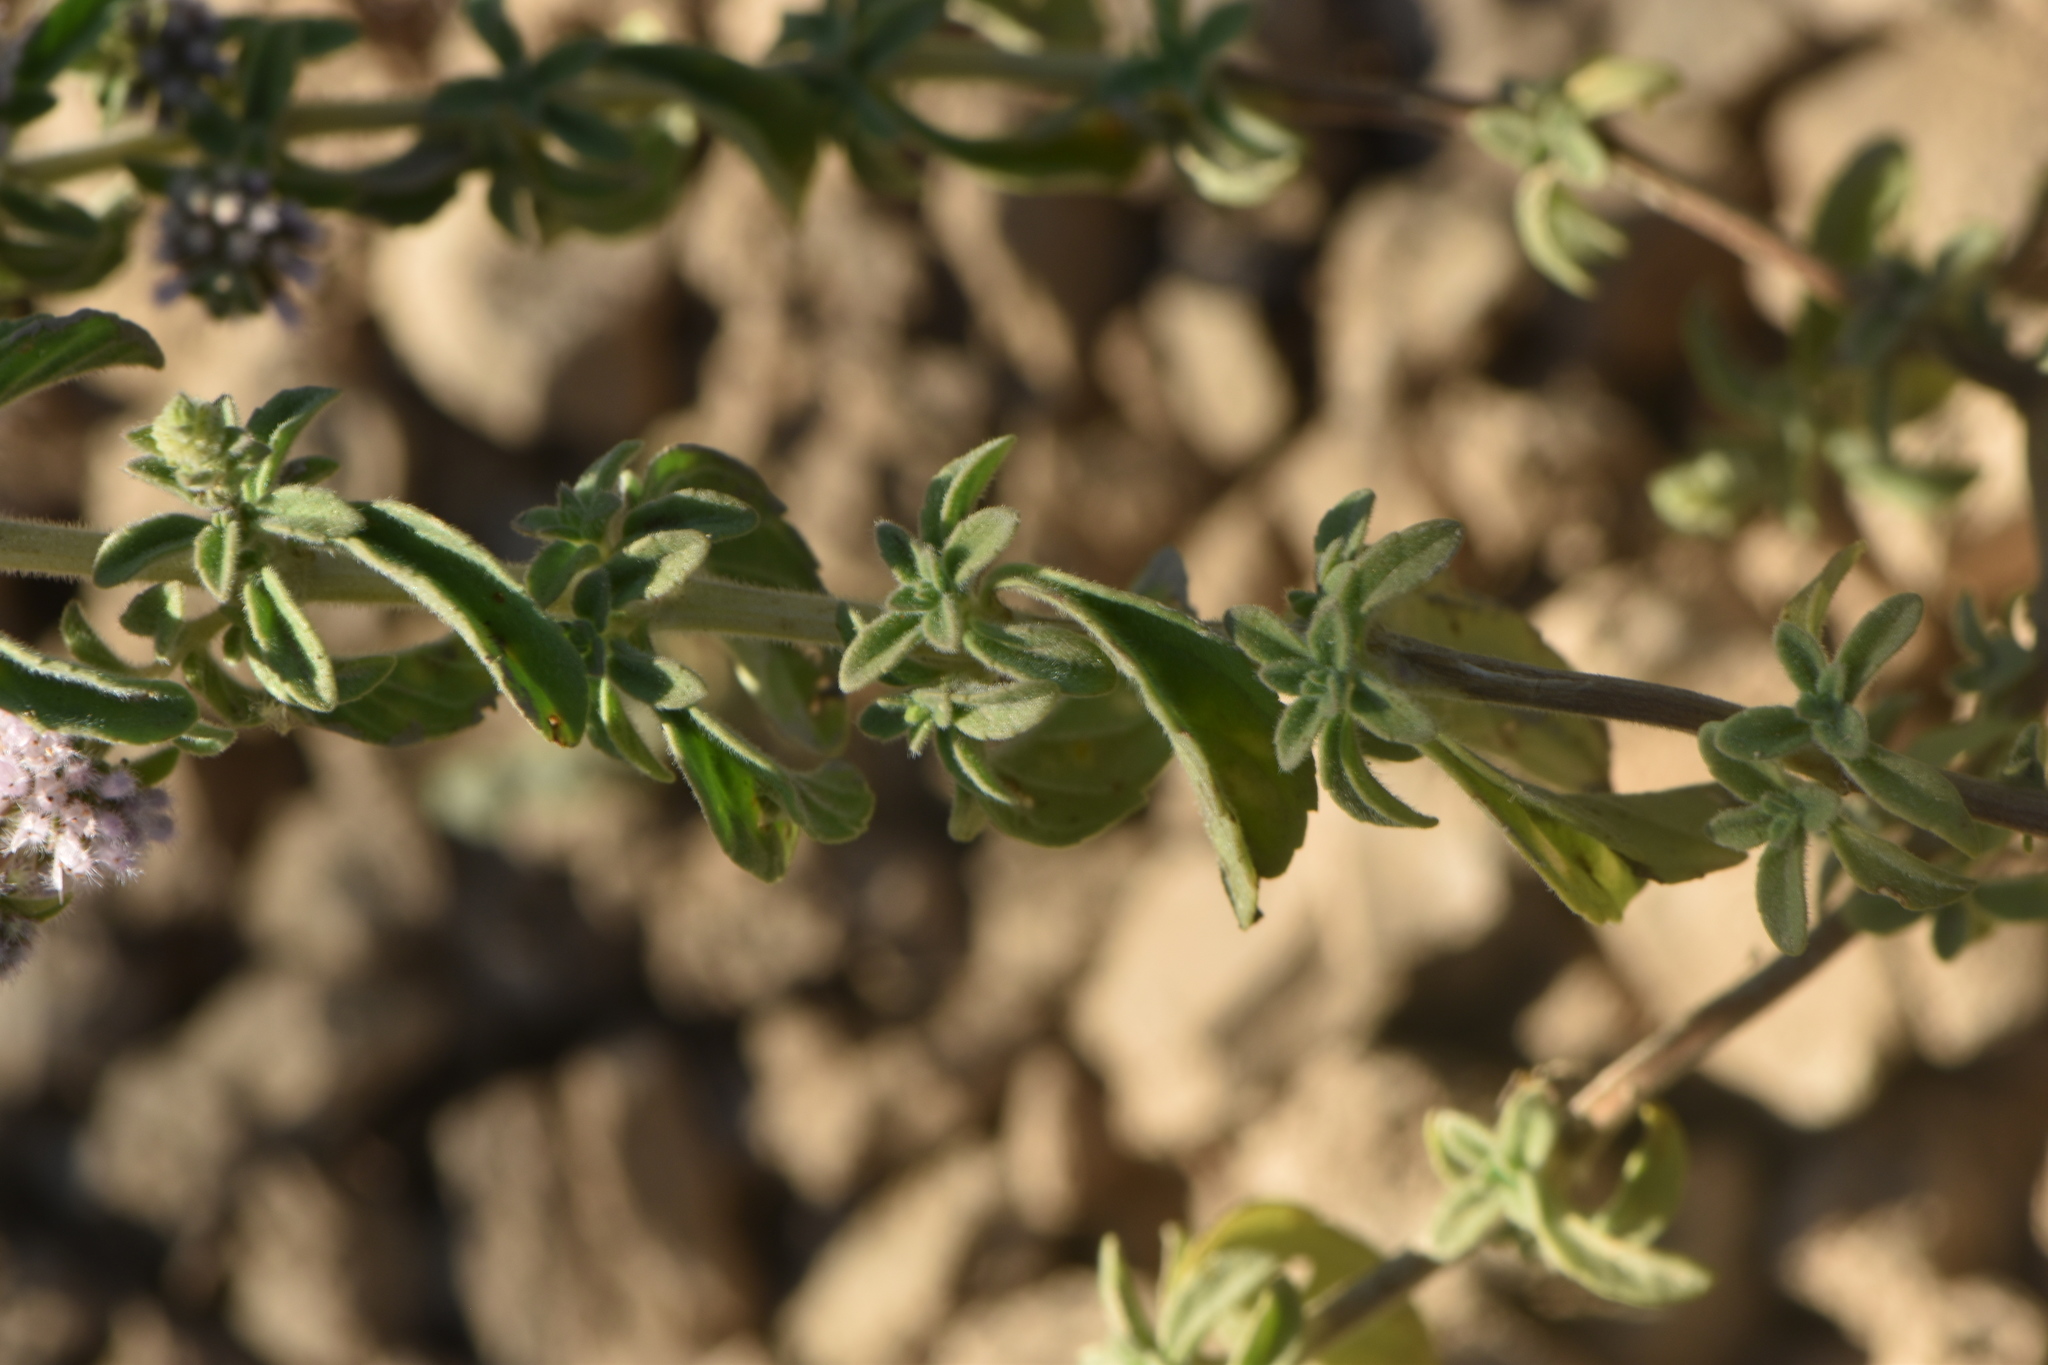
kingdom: Plantae
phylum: Tracheophyta
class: Magnoliopsida
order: Lamiales
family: Lamiaceae
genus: Mentha
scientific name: Mentha pulegium
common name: Pennyroyal
